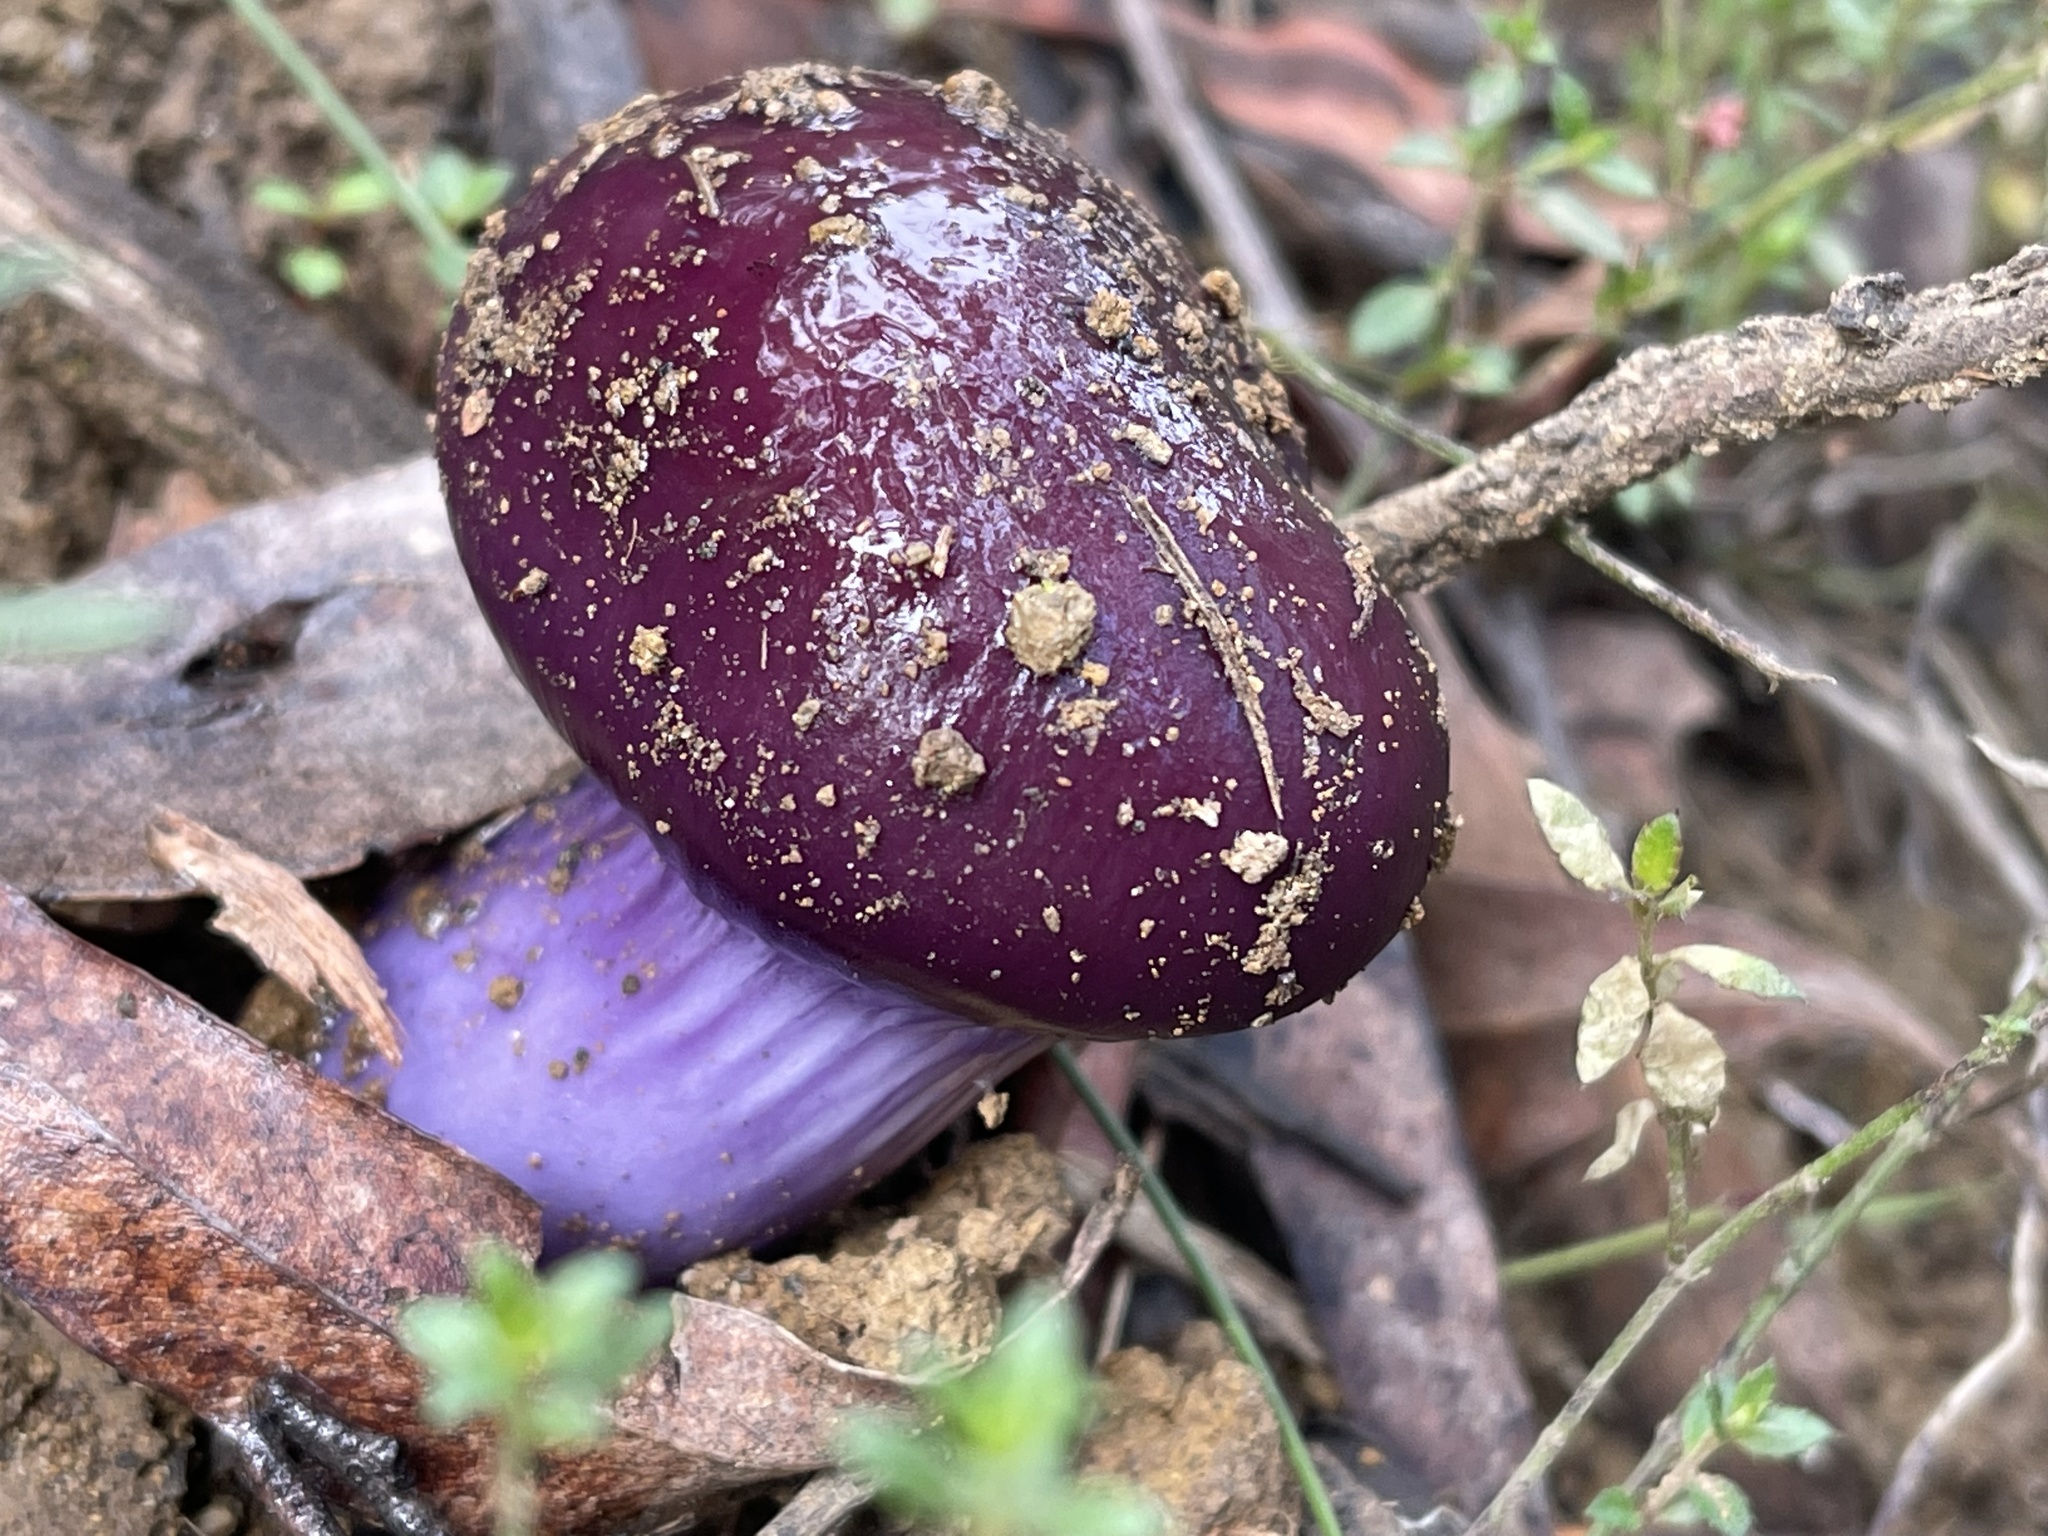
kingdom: Fungi
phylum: Basidiomycota
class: Agaricomycetes
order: Agaricales
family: Cortinariaceae
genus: Cortinarius
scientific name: Cortinarius archeri
